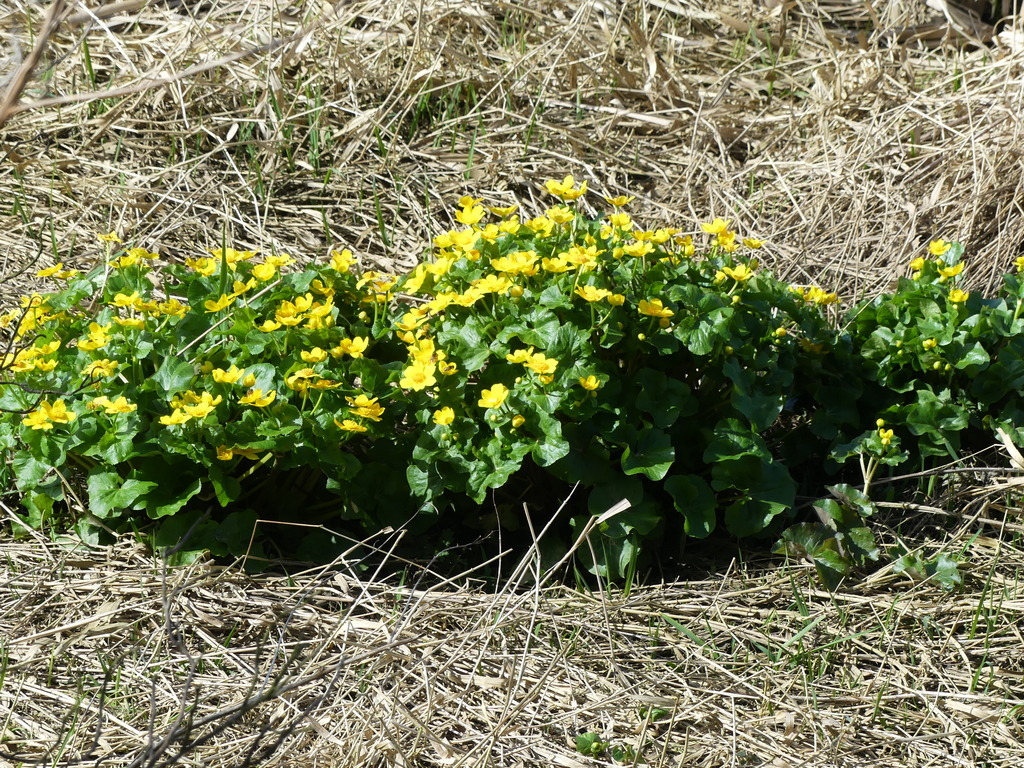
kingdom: Plantae
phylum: Tracheophyta
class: Magnoliopsida
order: Ranunculales
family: Ranunculaceae
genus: Caltha
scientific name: Caltha palustris
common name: Marsh marigold
